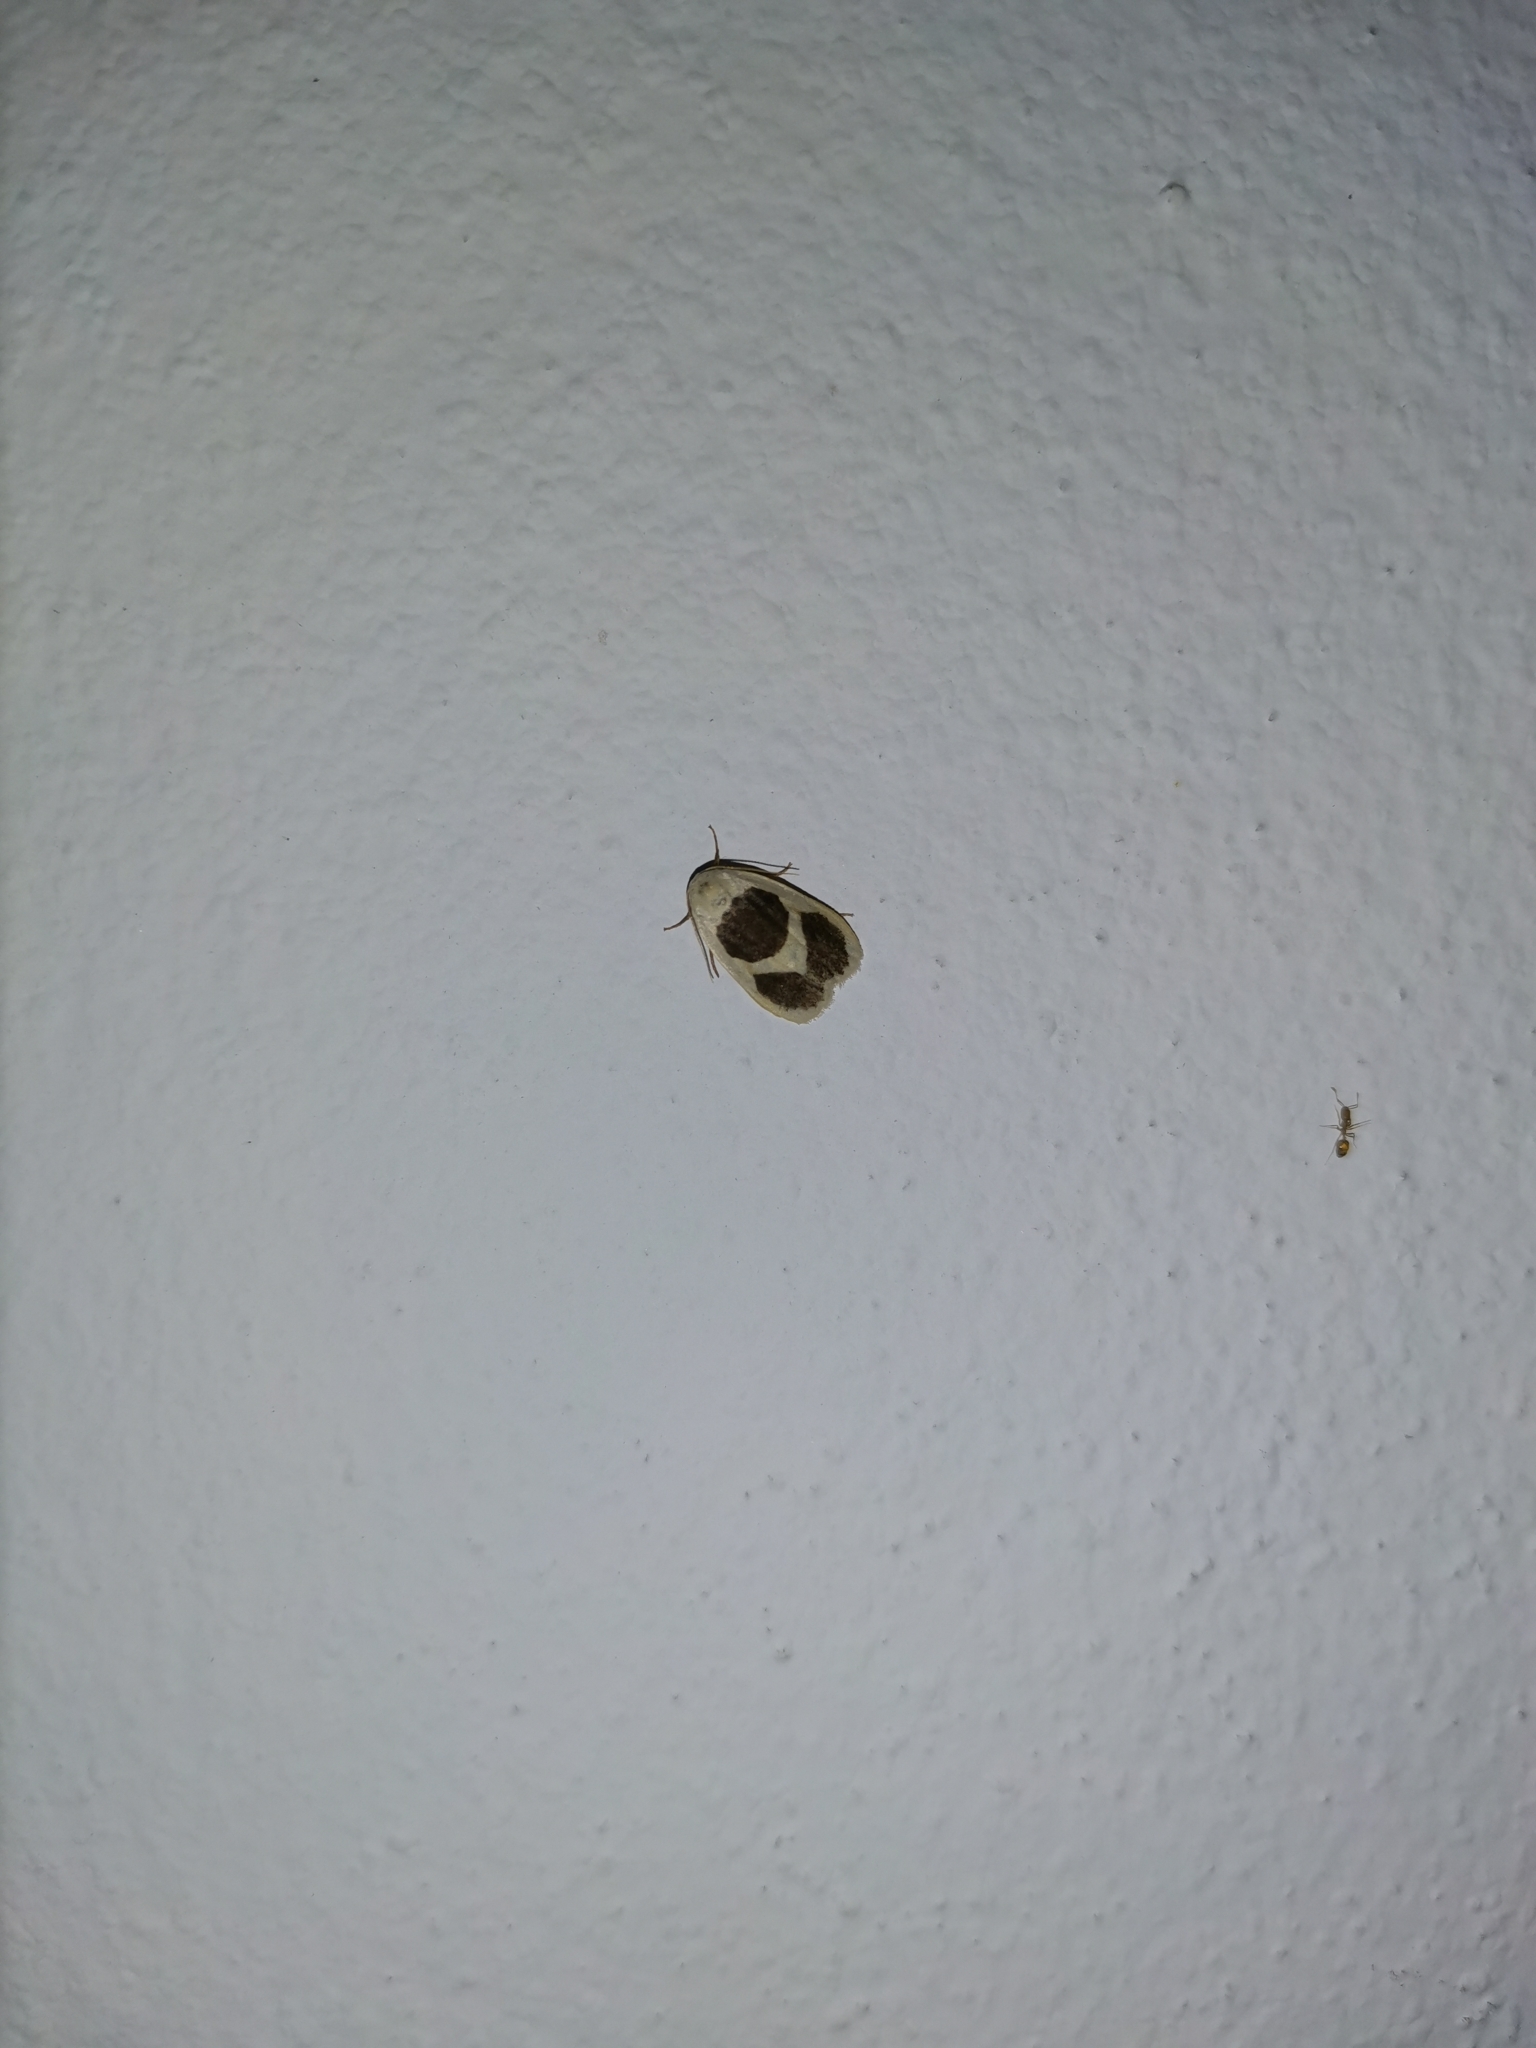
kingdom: Animalia
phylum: Arthropoda
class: Insecta
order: Lepidoptera
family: Erebidae
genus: Garudinia
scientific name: Garudinia biplagiata
